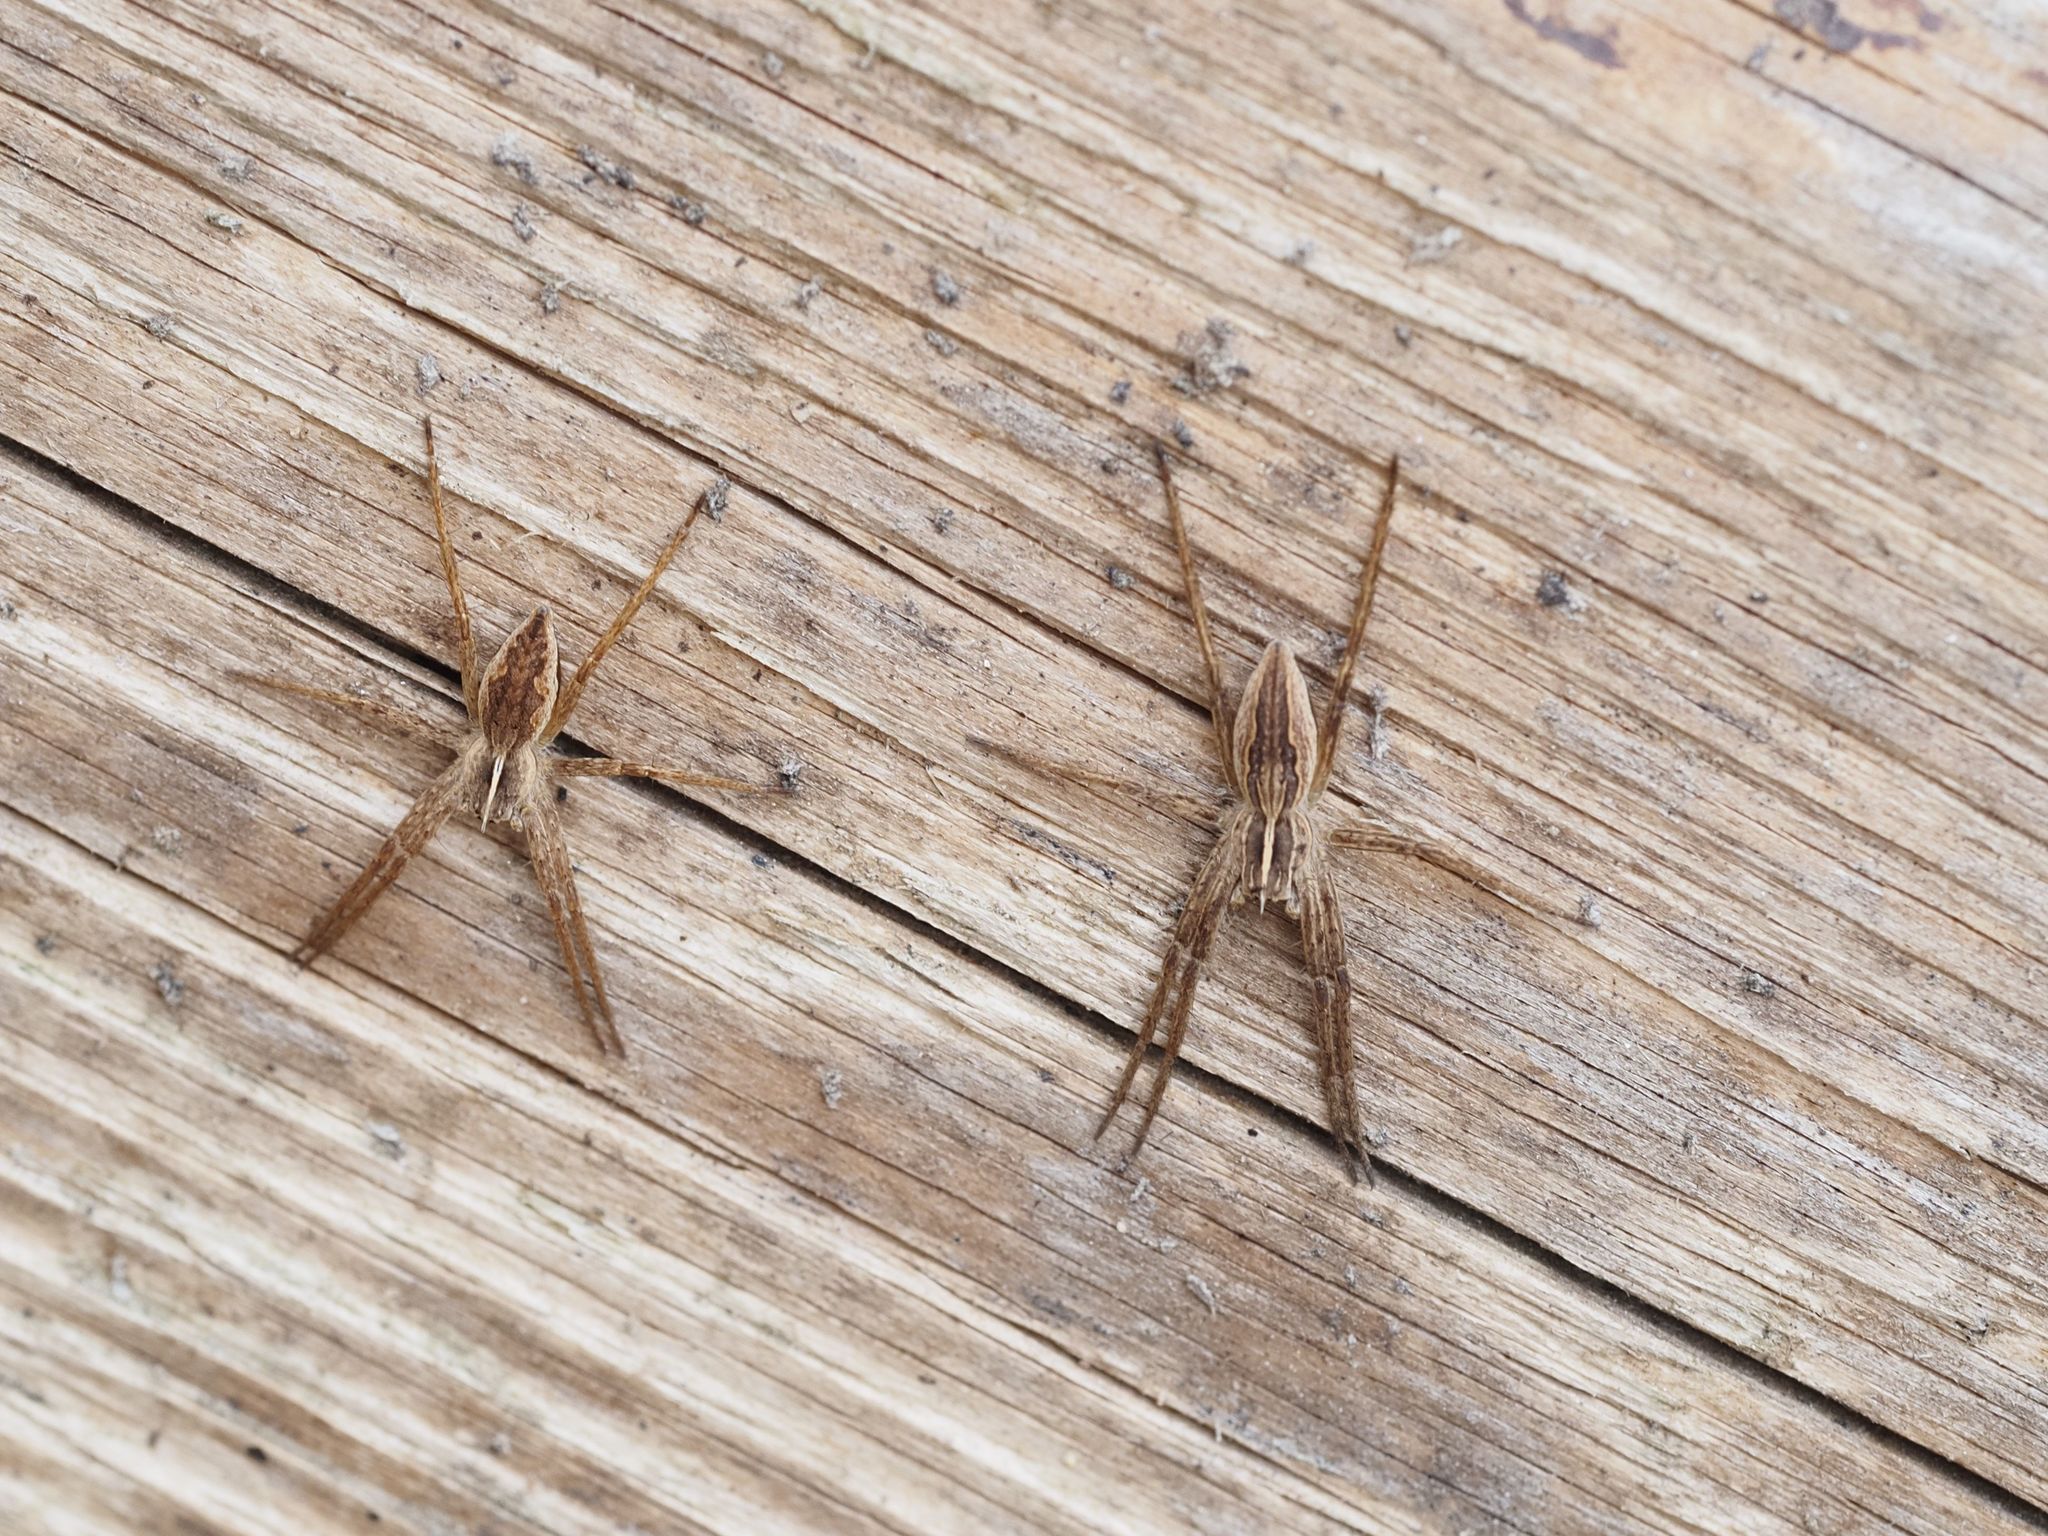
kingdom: Animalia
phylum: Arthropoda
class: Arachnida
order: Araneae
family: Pisauridae
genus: Pisaura
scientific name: Pisaura mirabilis
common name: Tent spider
